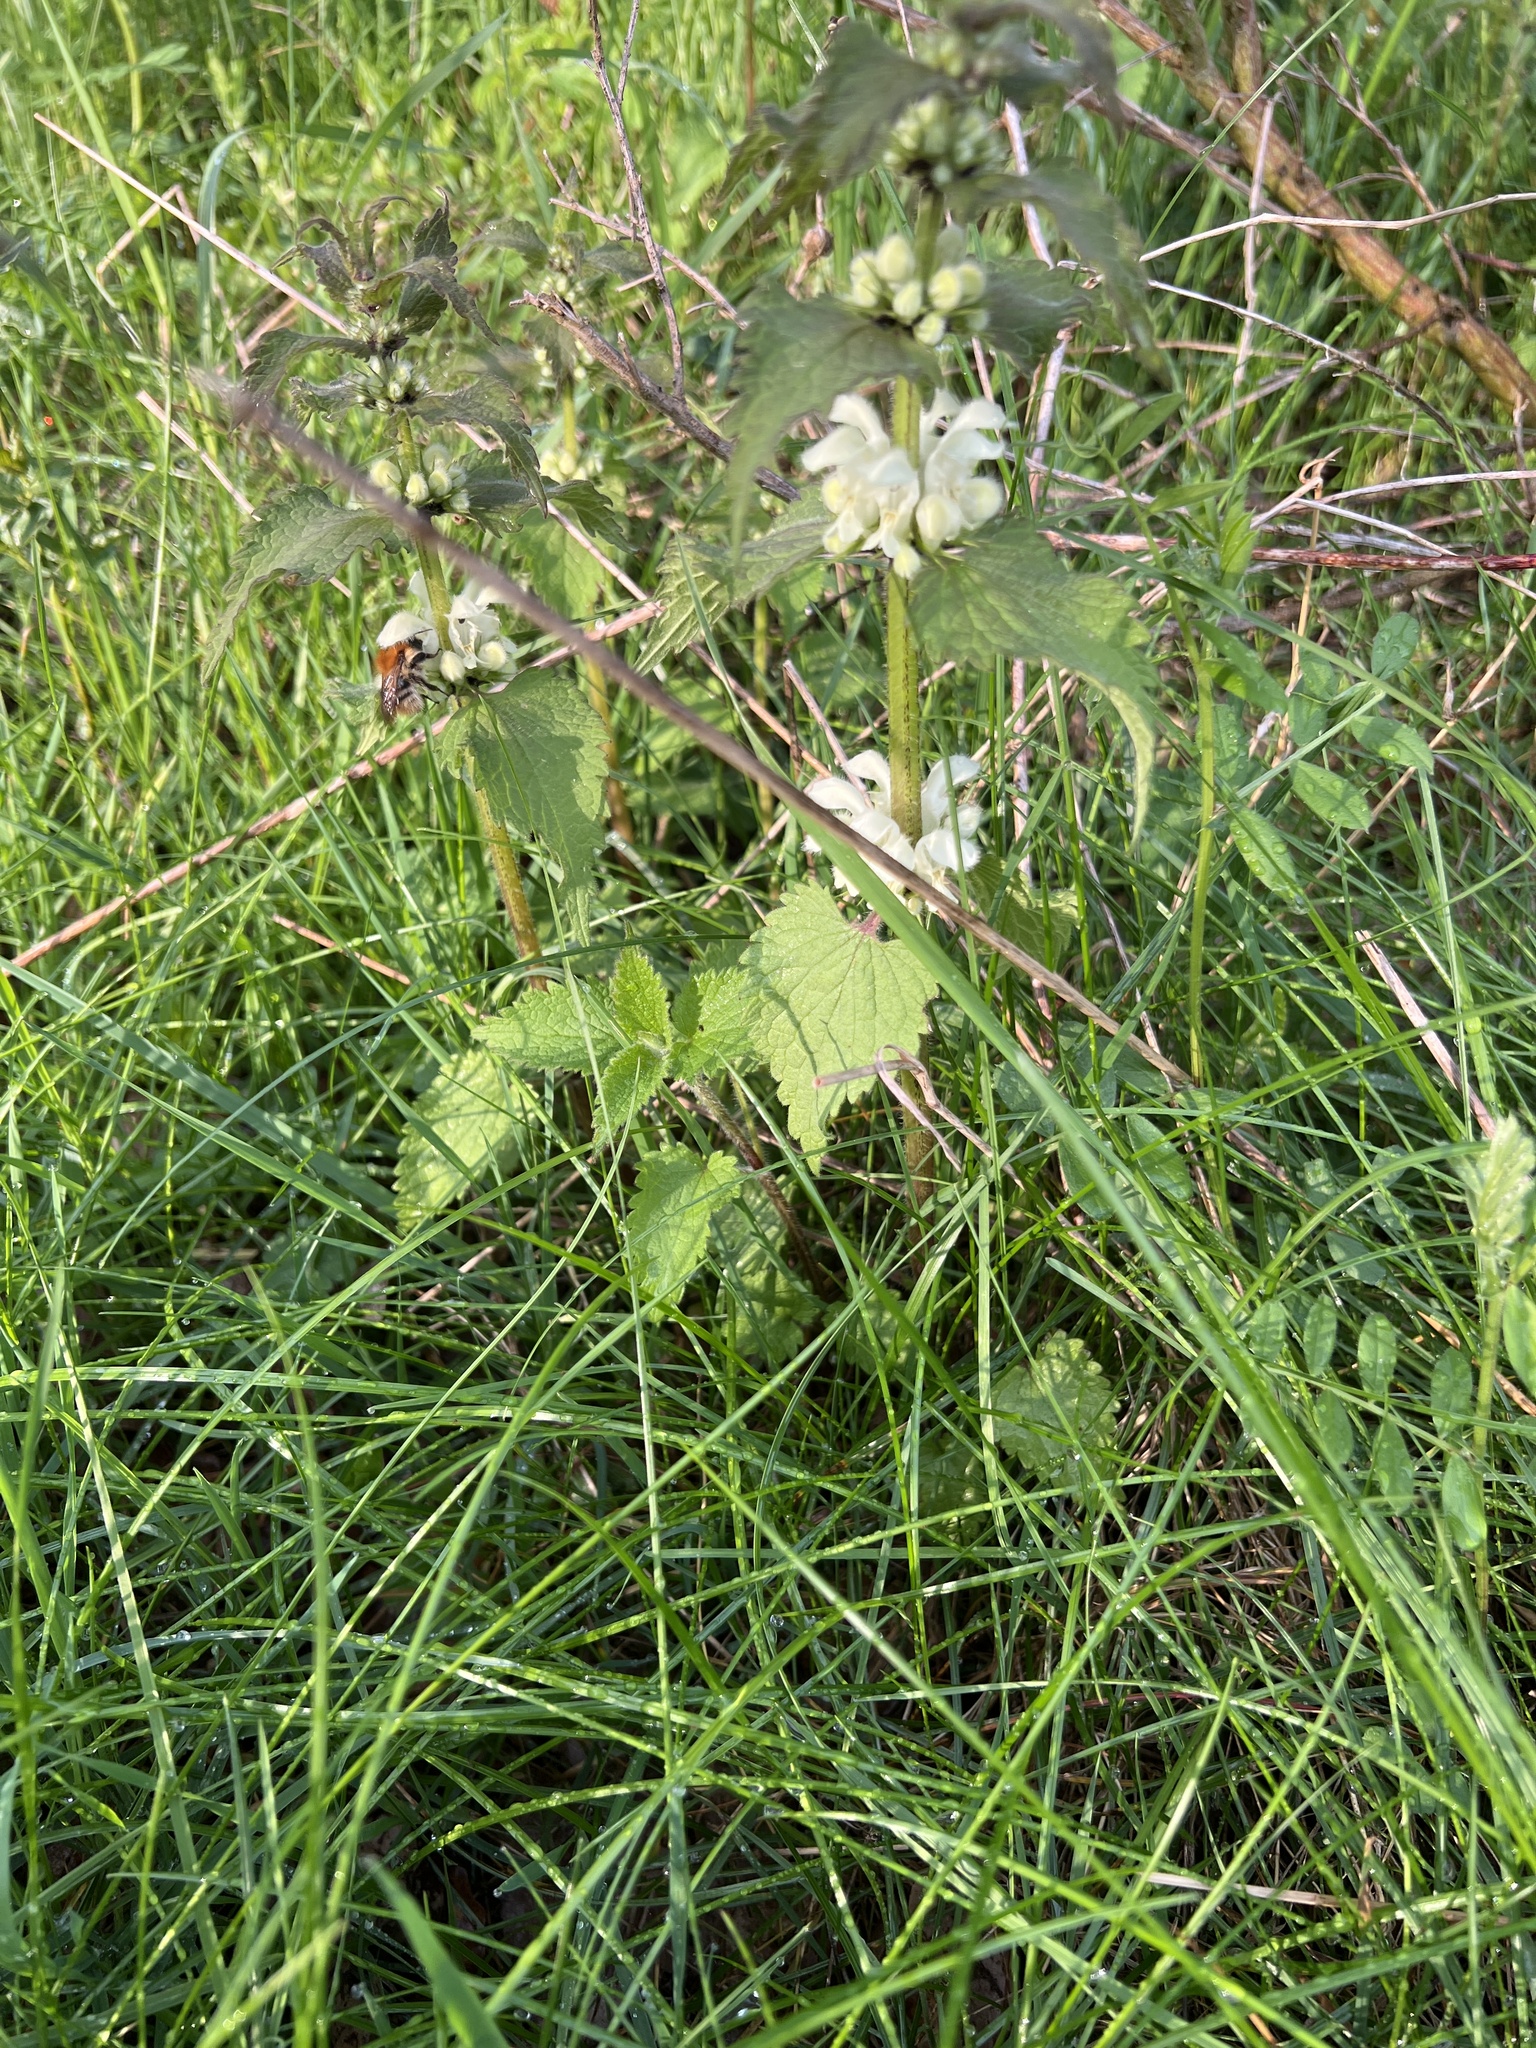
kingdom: Plantae
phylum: Tracheophyta
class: Magnoliopsida
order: Lamiales
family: Lamiaceae
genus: Lamium
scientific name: Lamium album
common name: White dead-nettle
